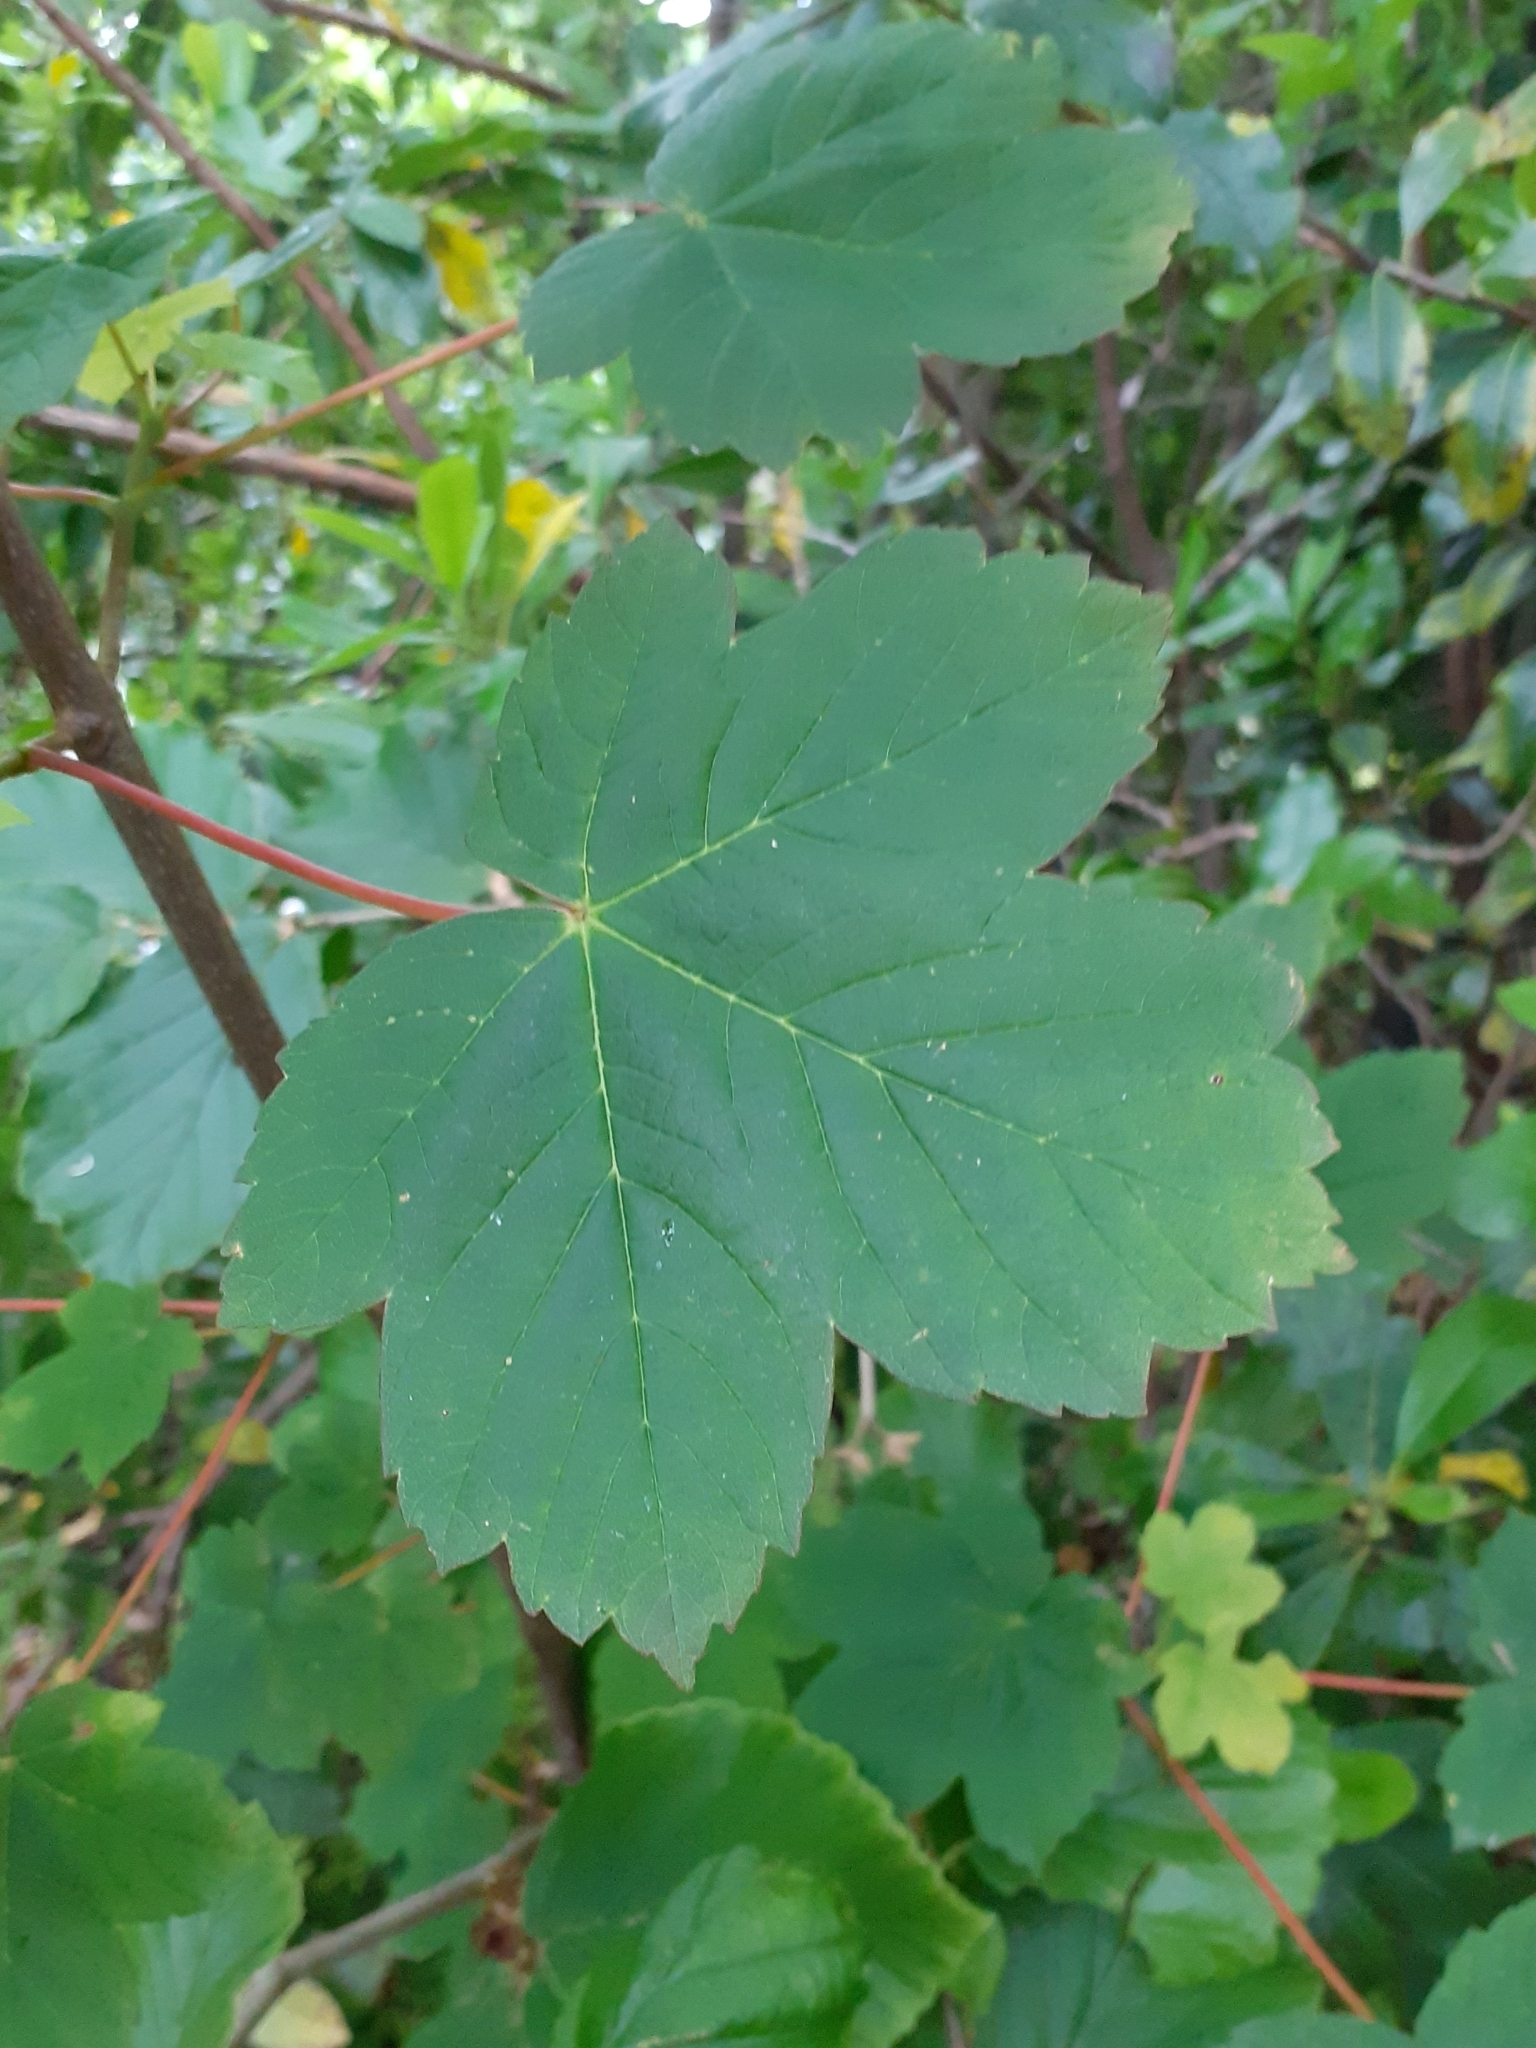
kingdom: Plantae
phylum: Tracheophyta
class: Magnoliopsida
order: Sapindales
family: Sapindaceae
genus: Acer
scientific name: Acer pseudoplatanus
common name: Sycamore
